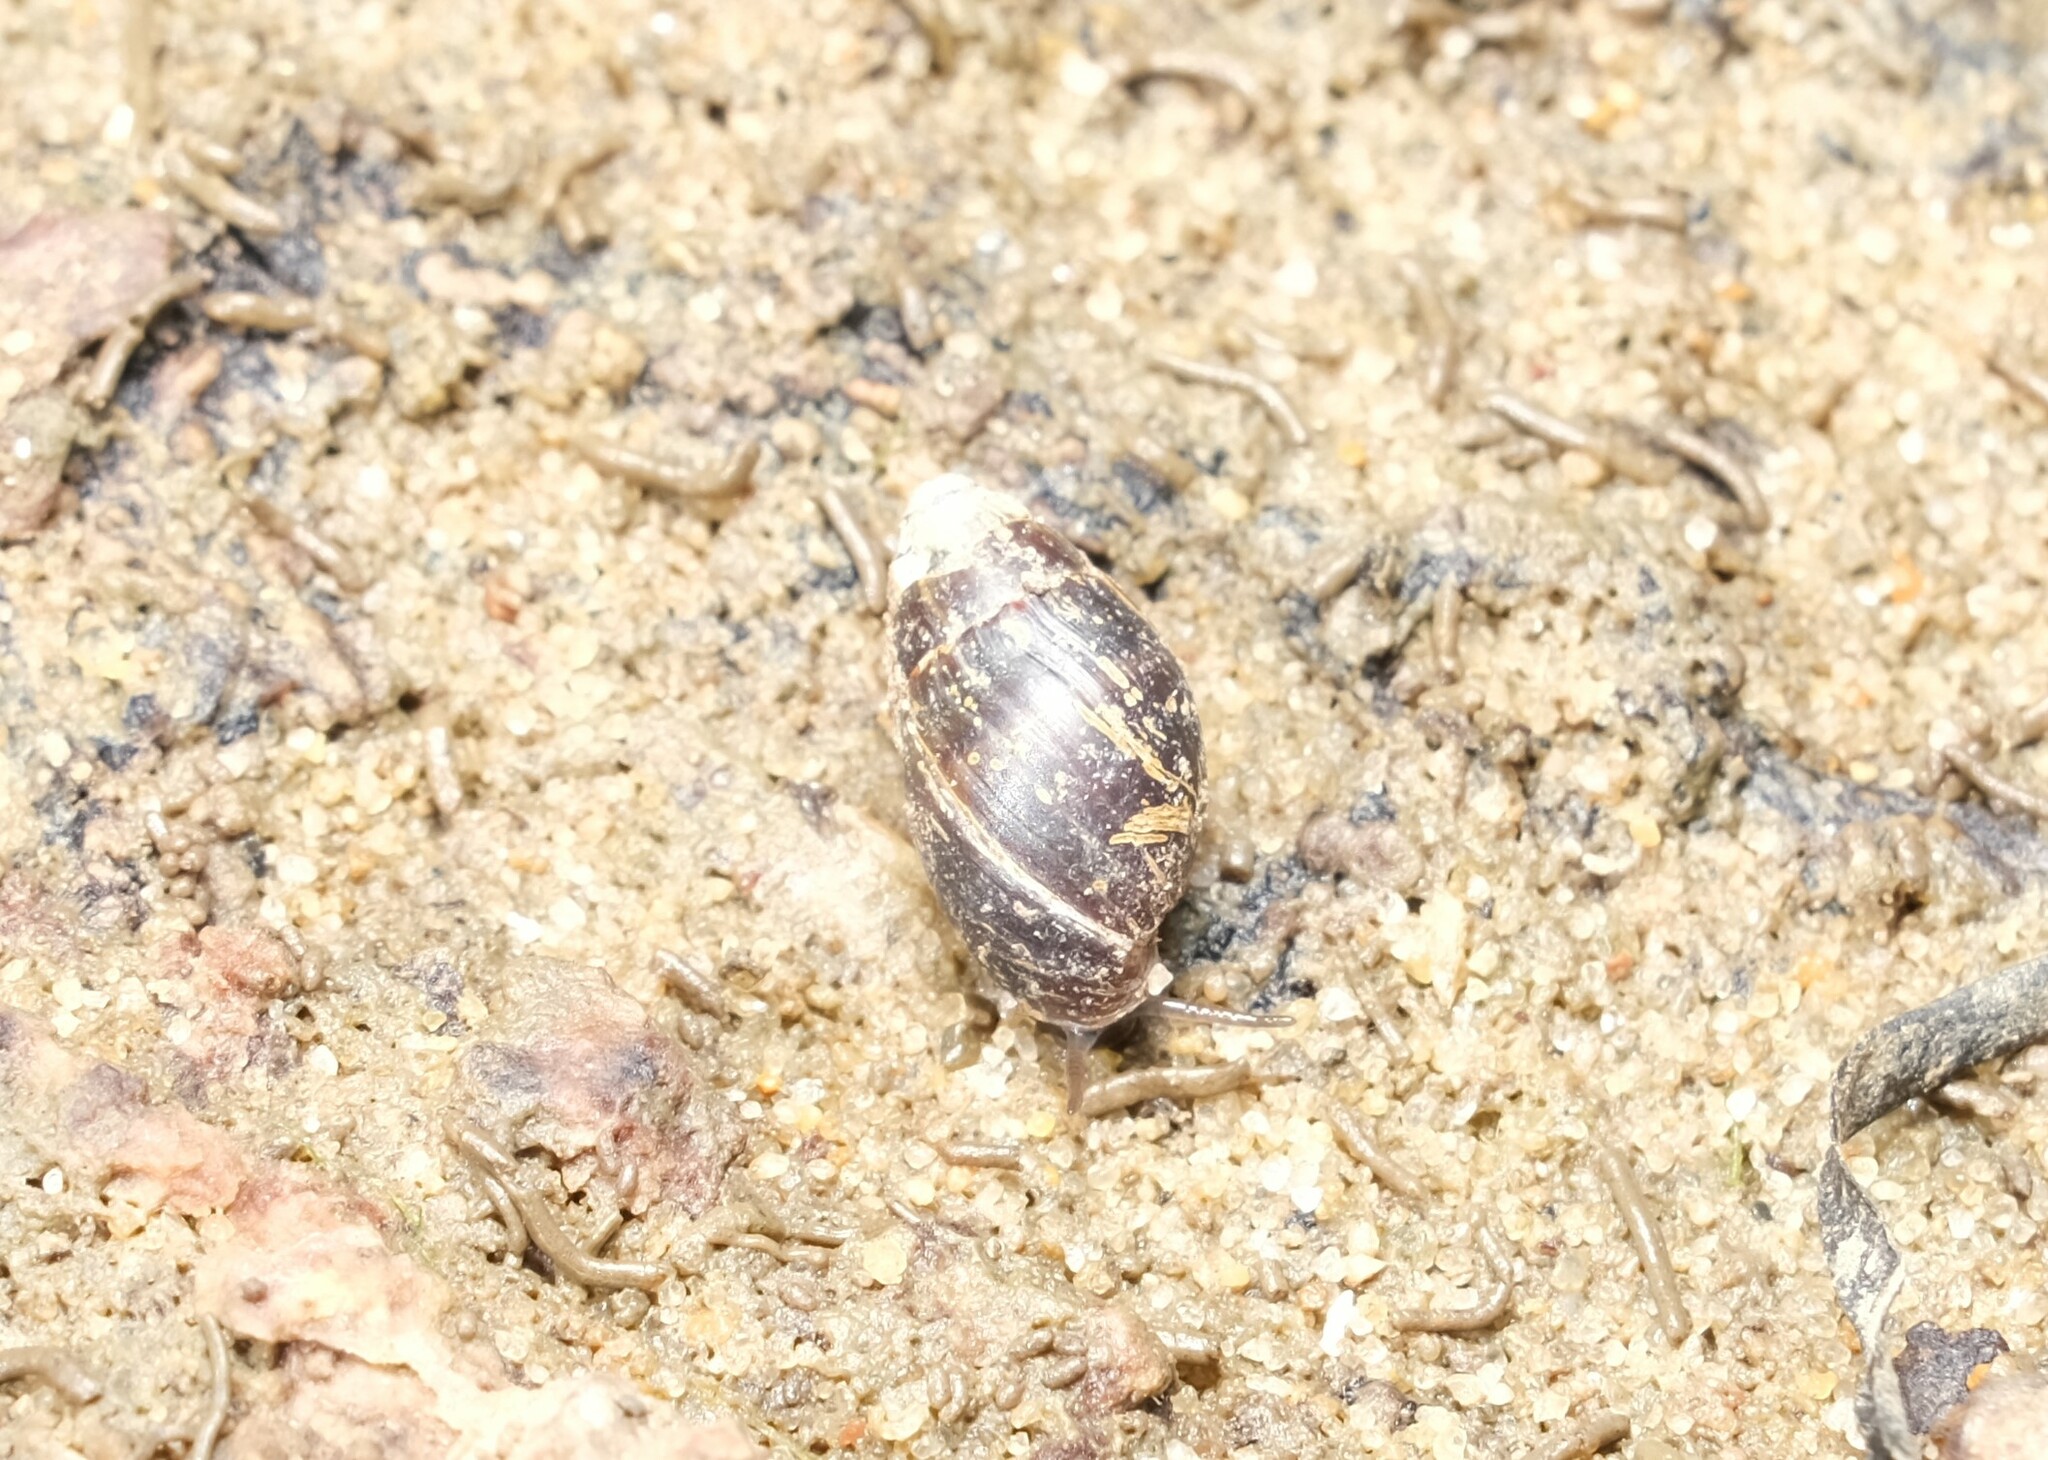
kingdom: Animalia
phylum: Mollusca
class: Gastropoda
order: Ellobiida
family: Ellobiidae
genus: Ophicardelus
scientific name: Ophicardelus ornatus
